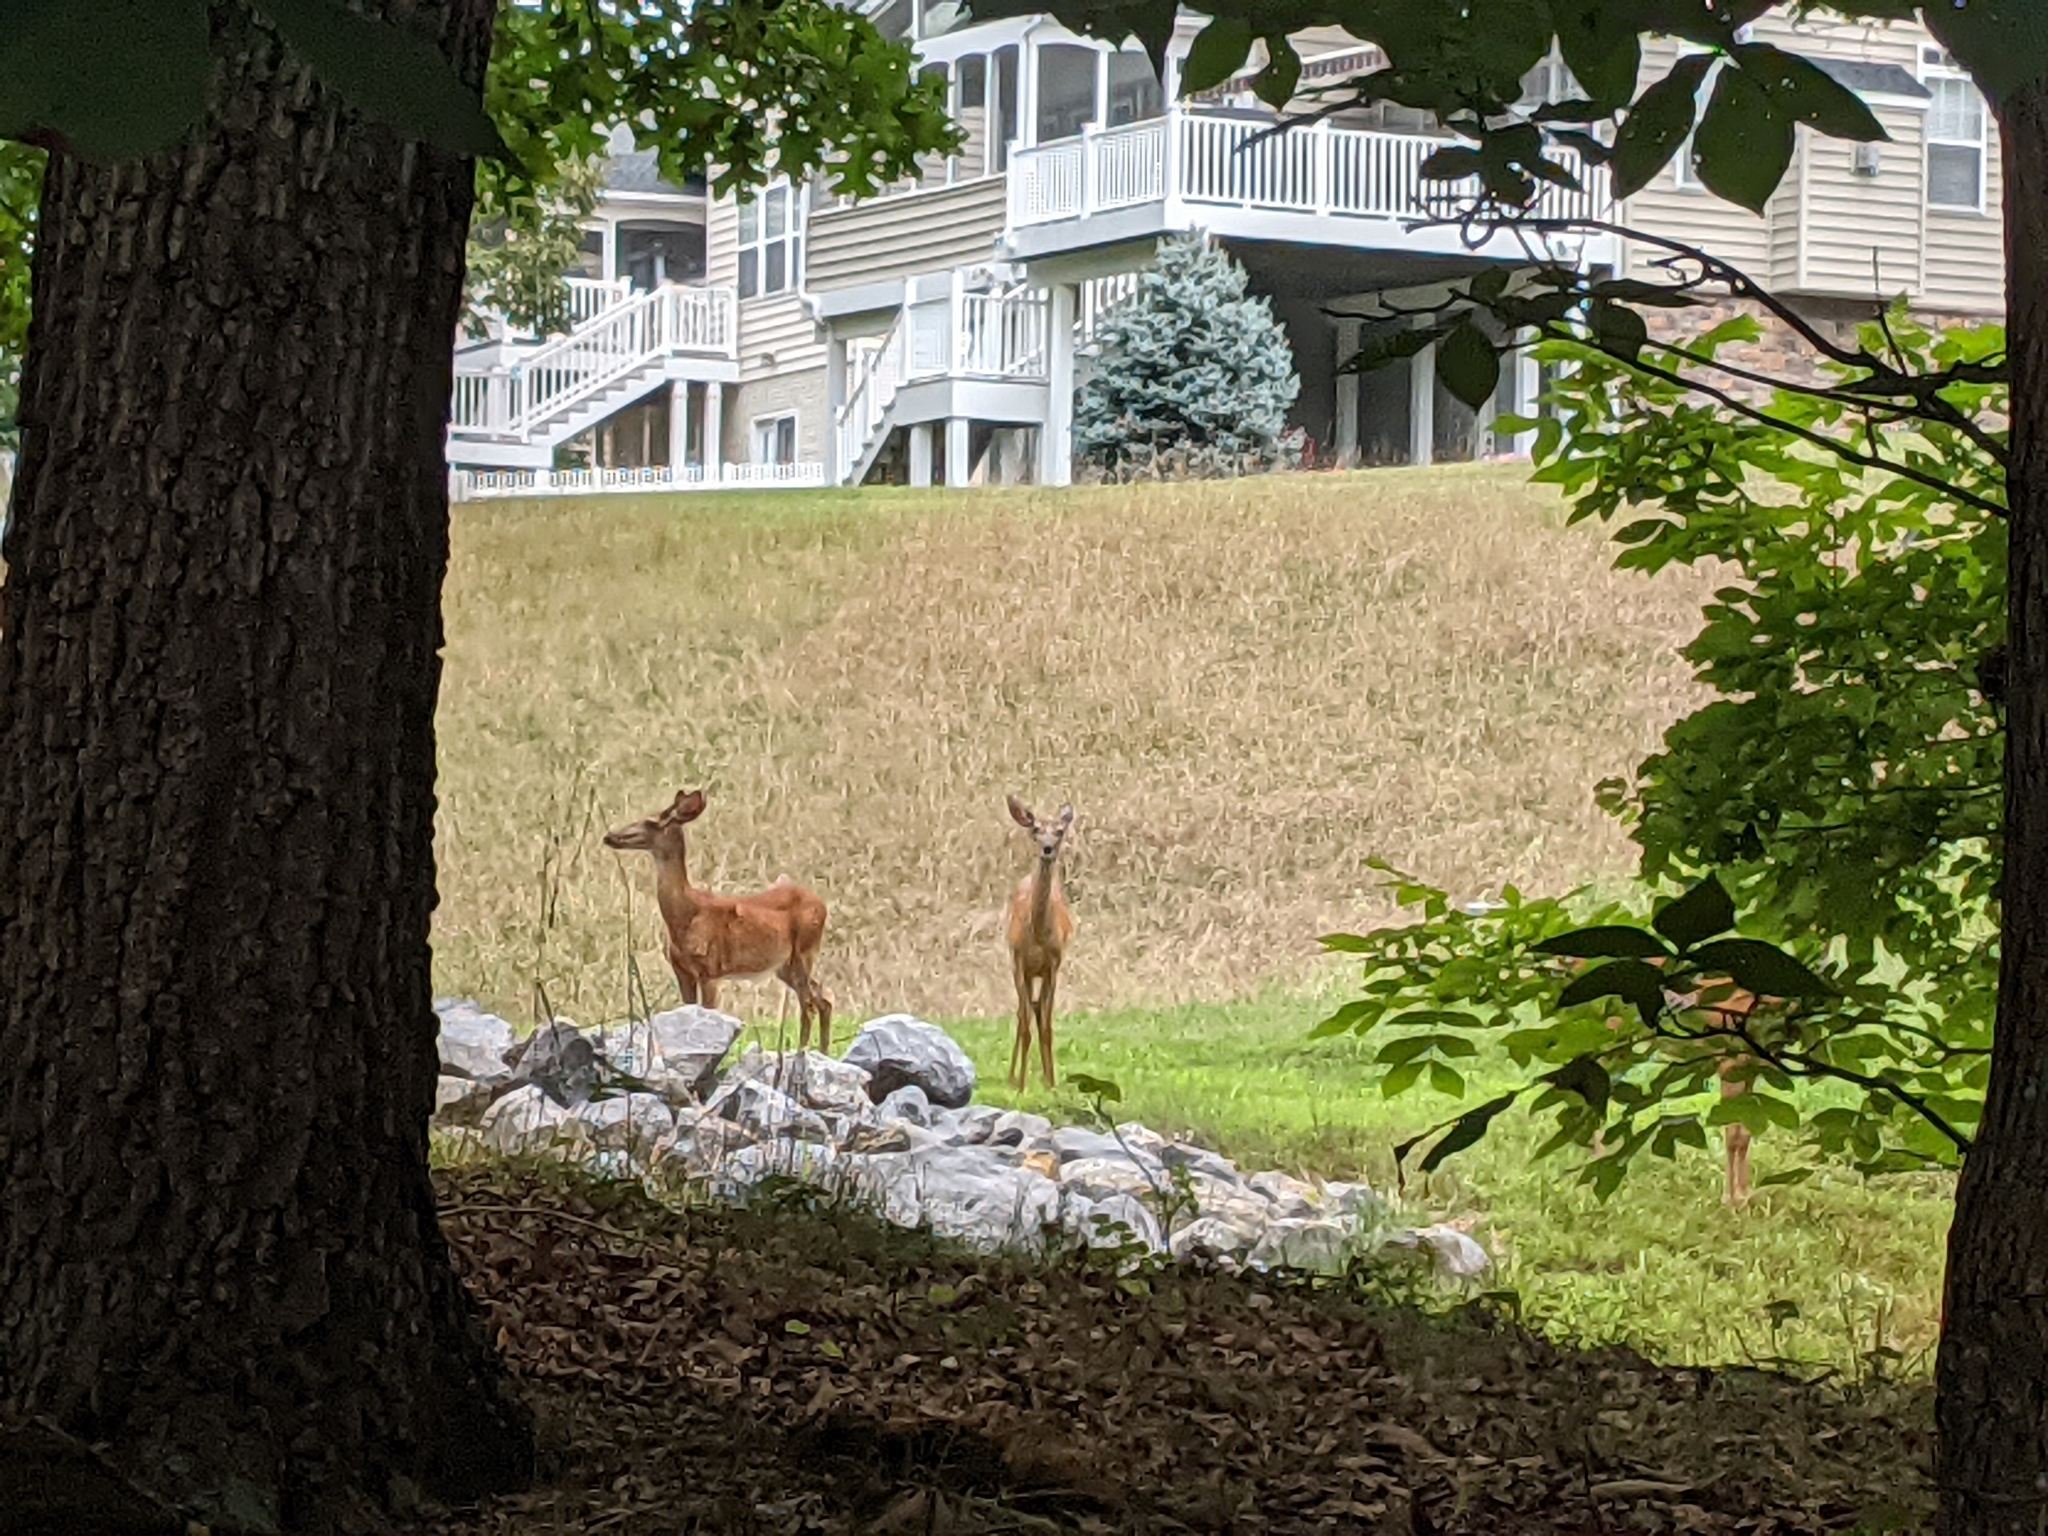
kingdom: Animalia
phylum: Chordata
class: Mammalia
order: Artiodactyla
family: Cervidae
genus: Odocoileus
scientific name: Odocoileus virginianus
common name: White-tailed deer
